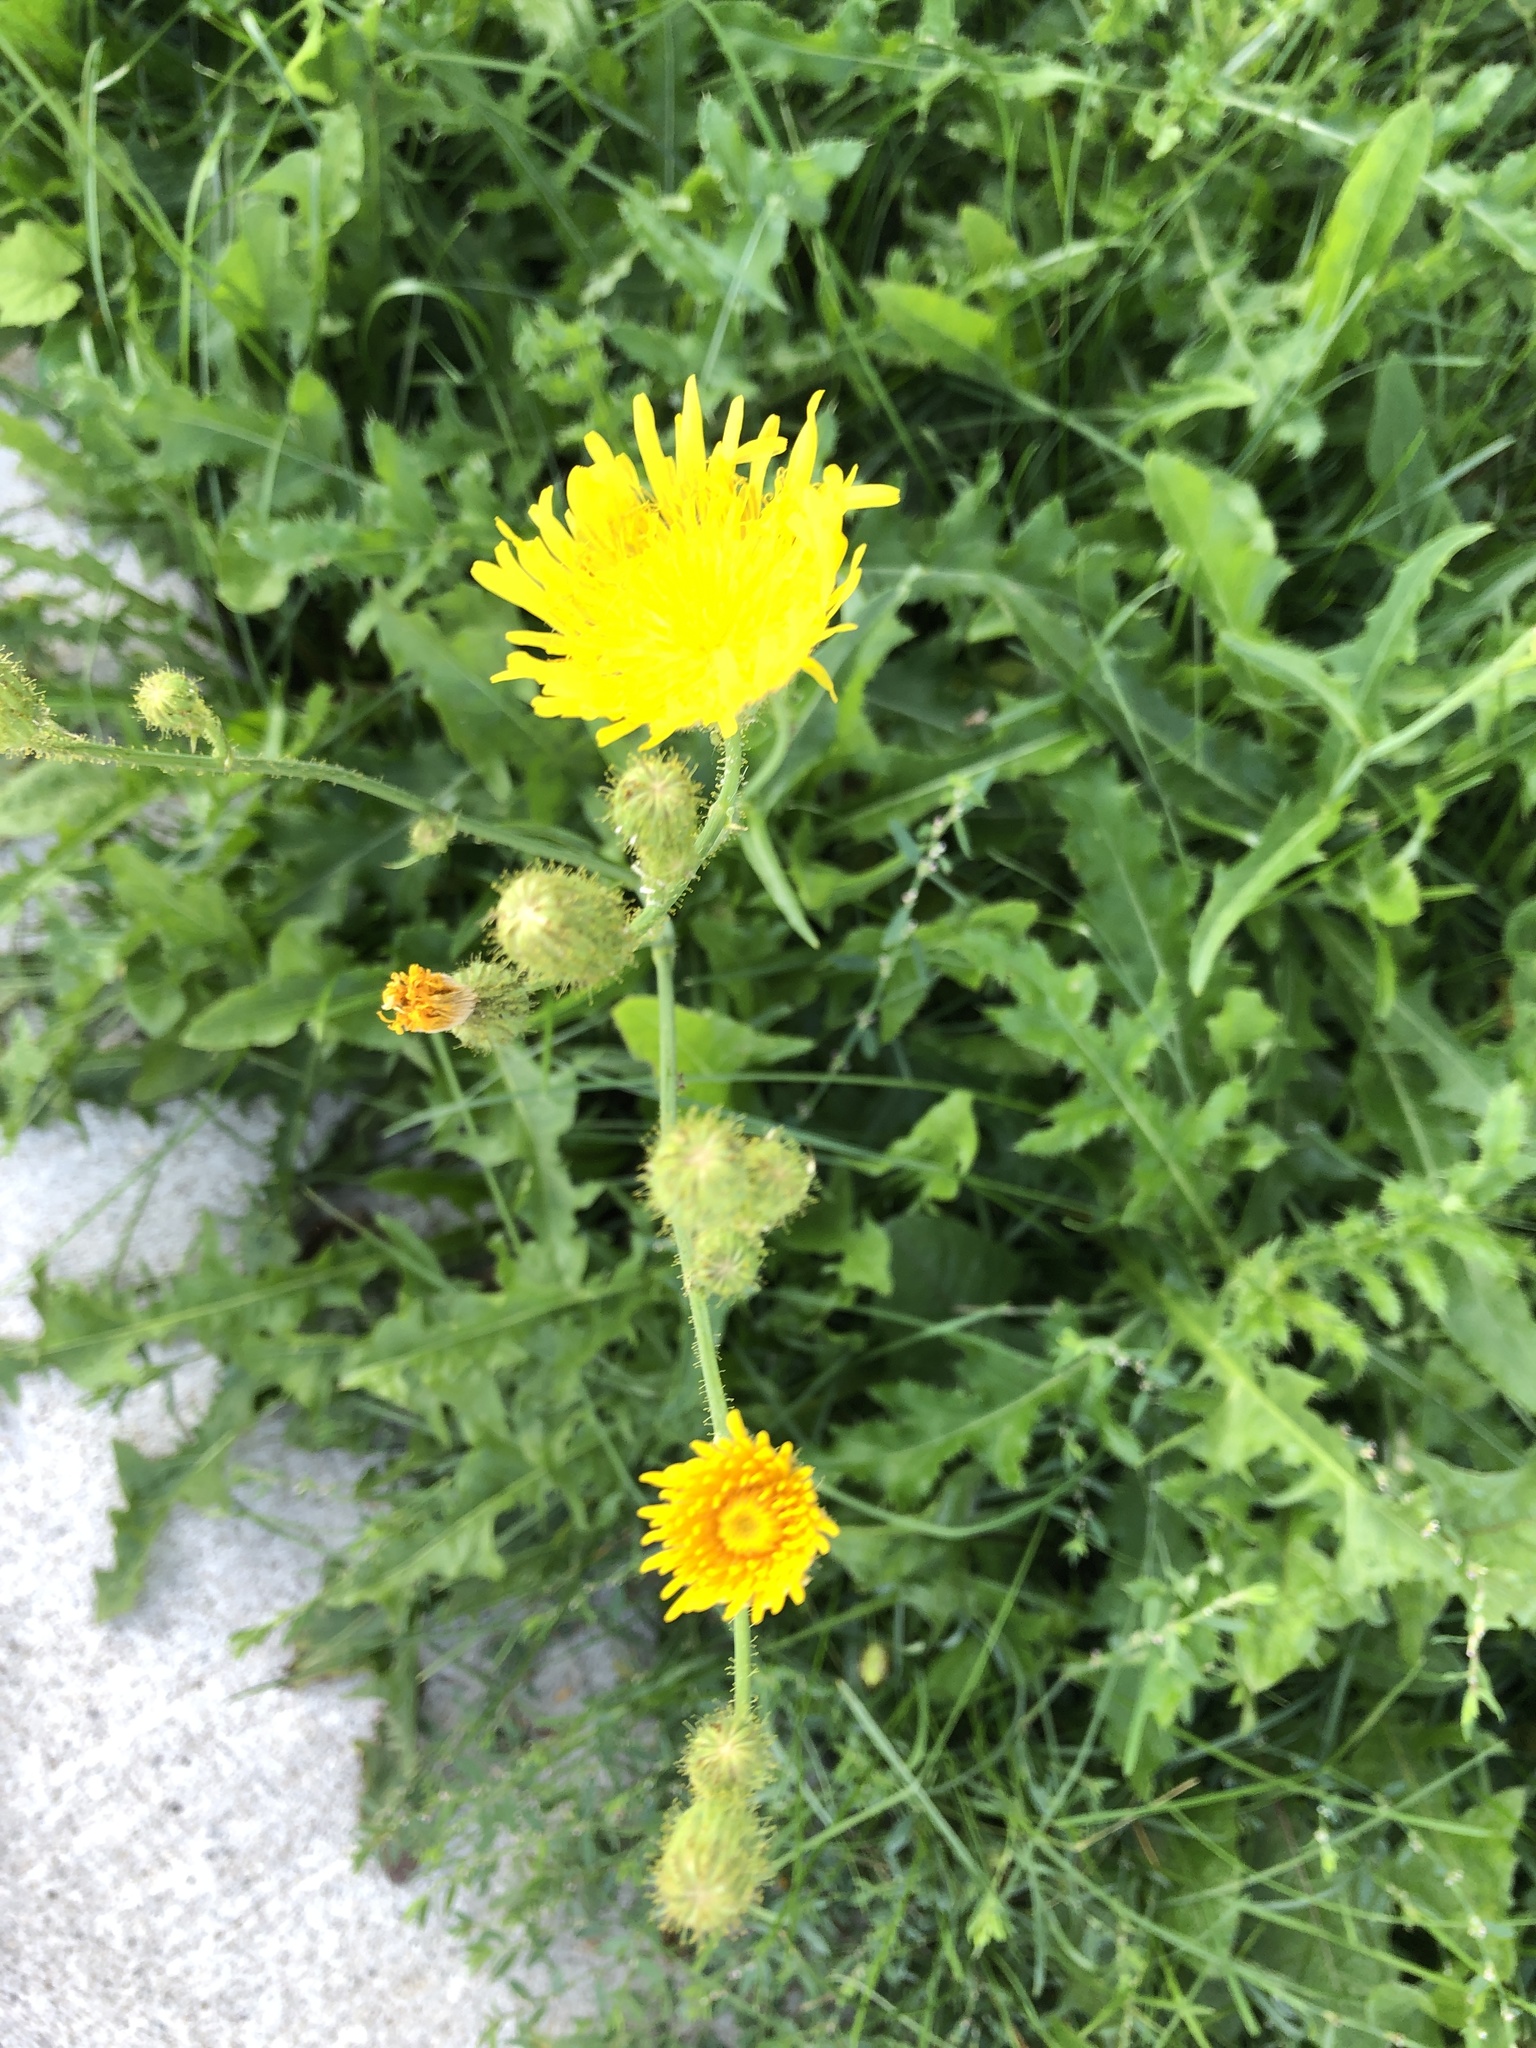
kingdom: Plantae
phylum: Tracheophyta
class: Magnoliopsida
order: Asterales
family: Asteraceae
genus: Sonchus
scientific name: Sonchus arvensis
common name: Perennial sow-thistle
